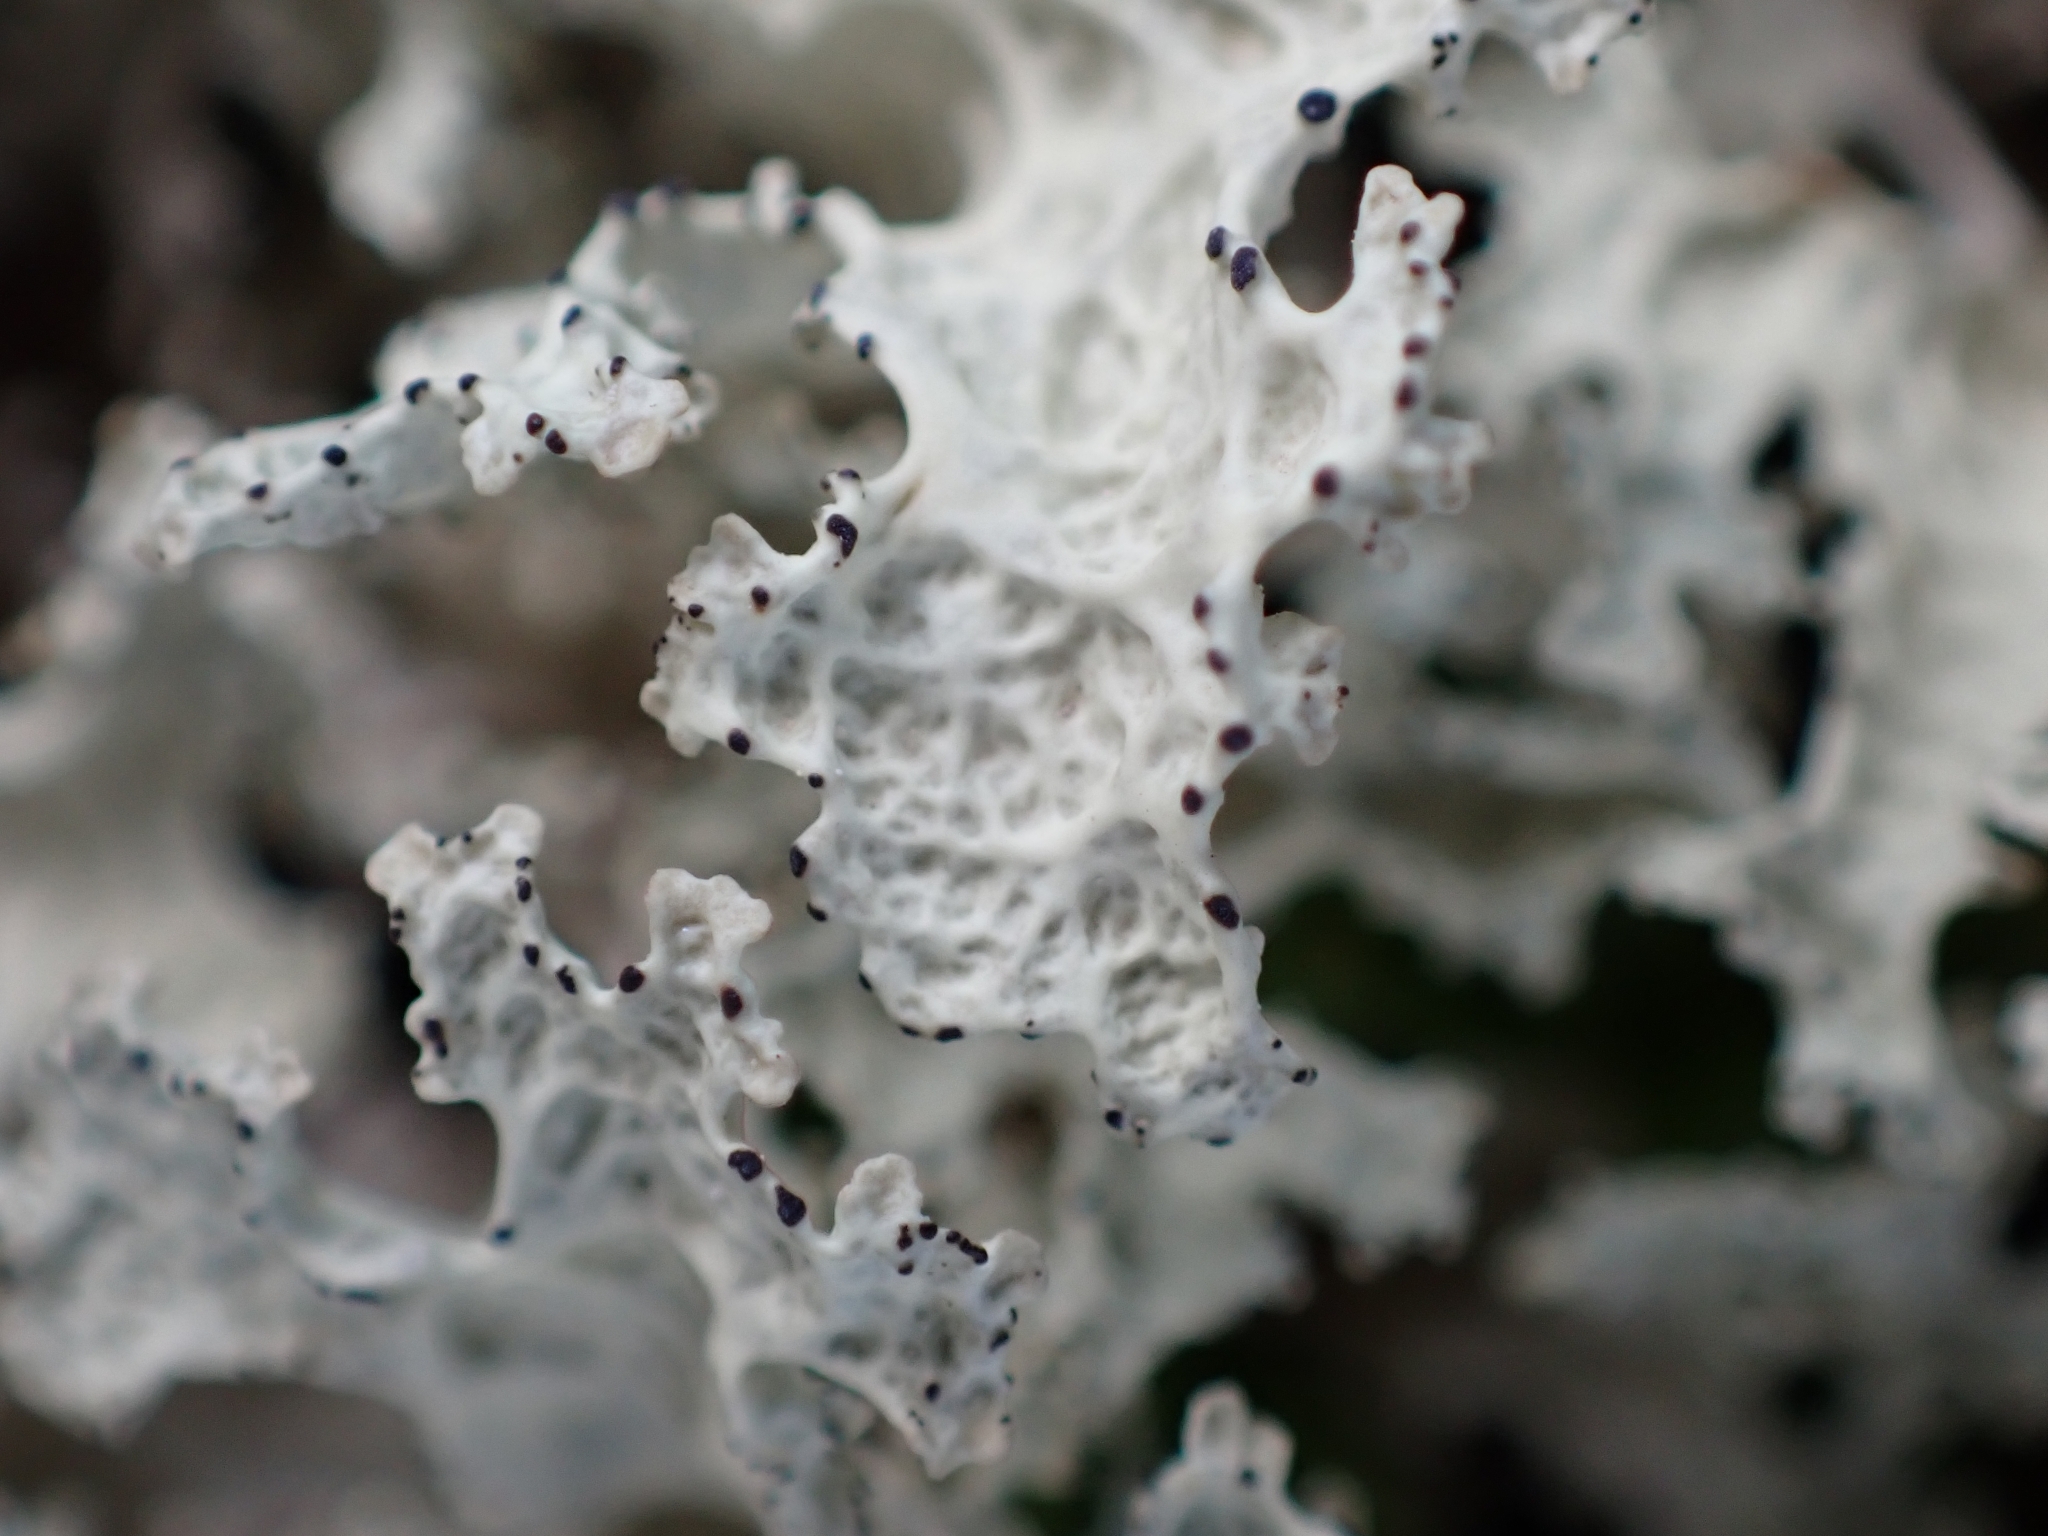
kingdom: Fungi
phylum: Ascomycota
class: Lecanoromycetes
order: Lecanorales
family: Parmeliaceae
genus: Nephromopsis
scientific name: Nephromopsis nivalis
